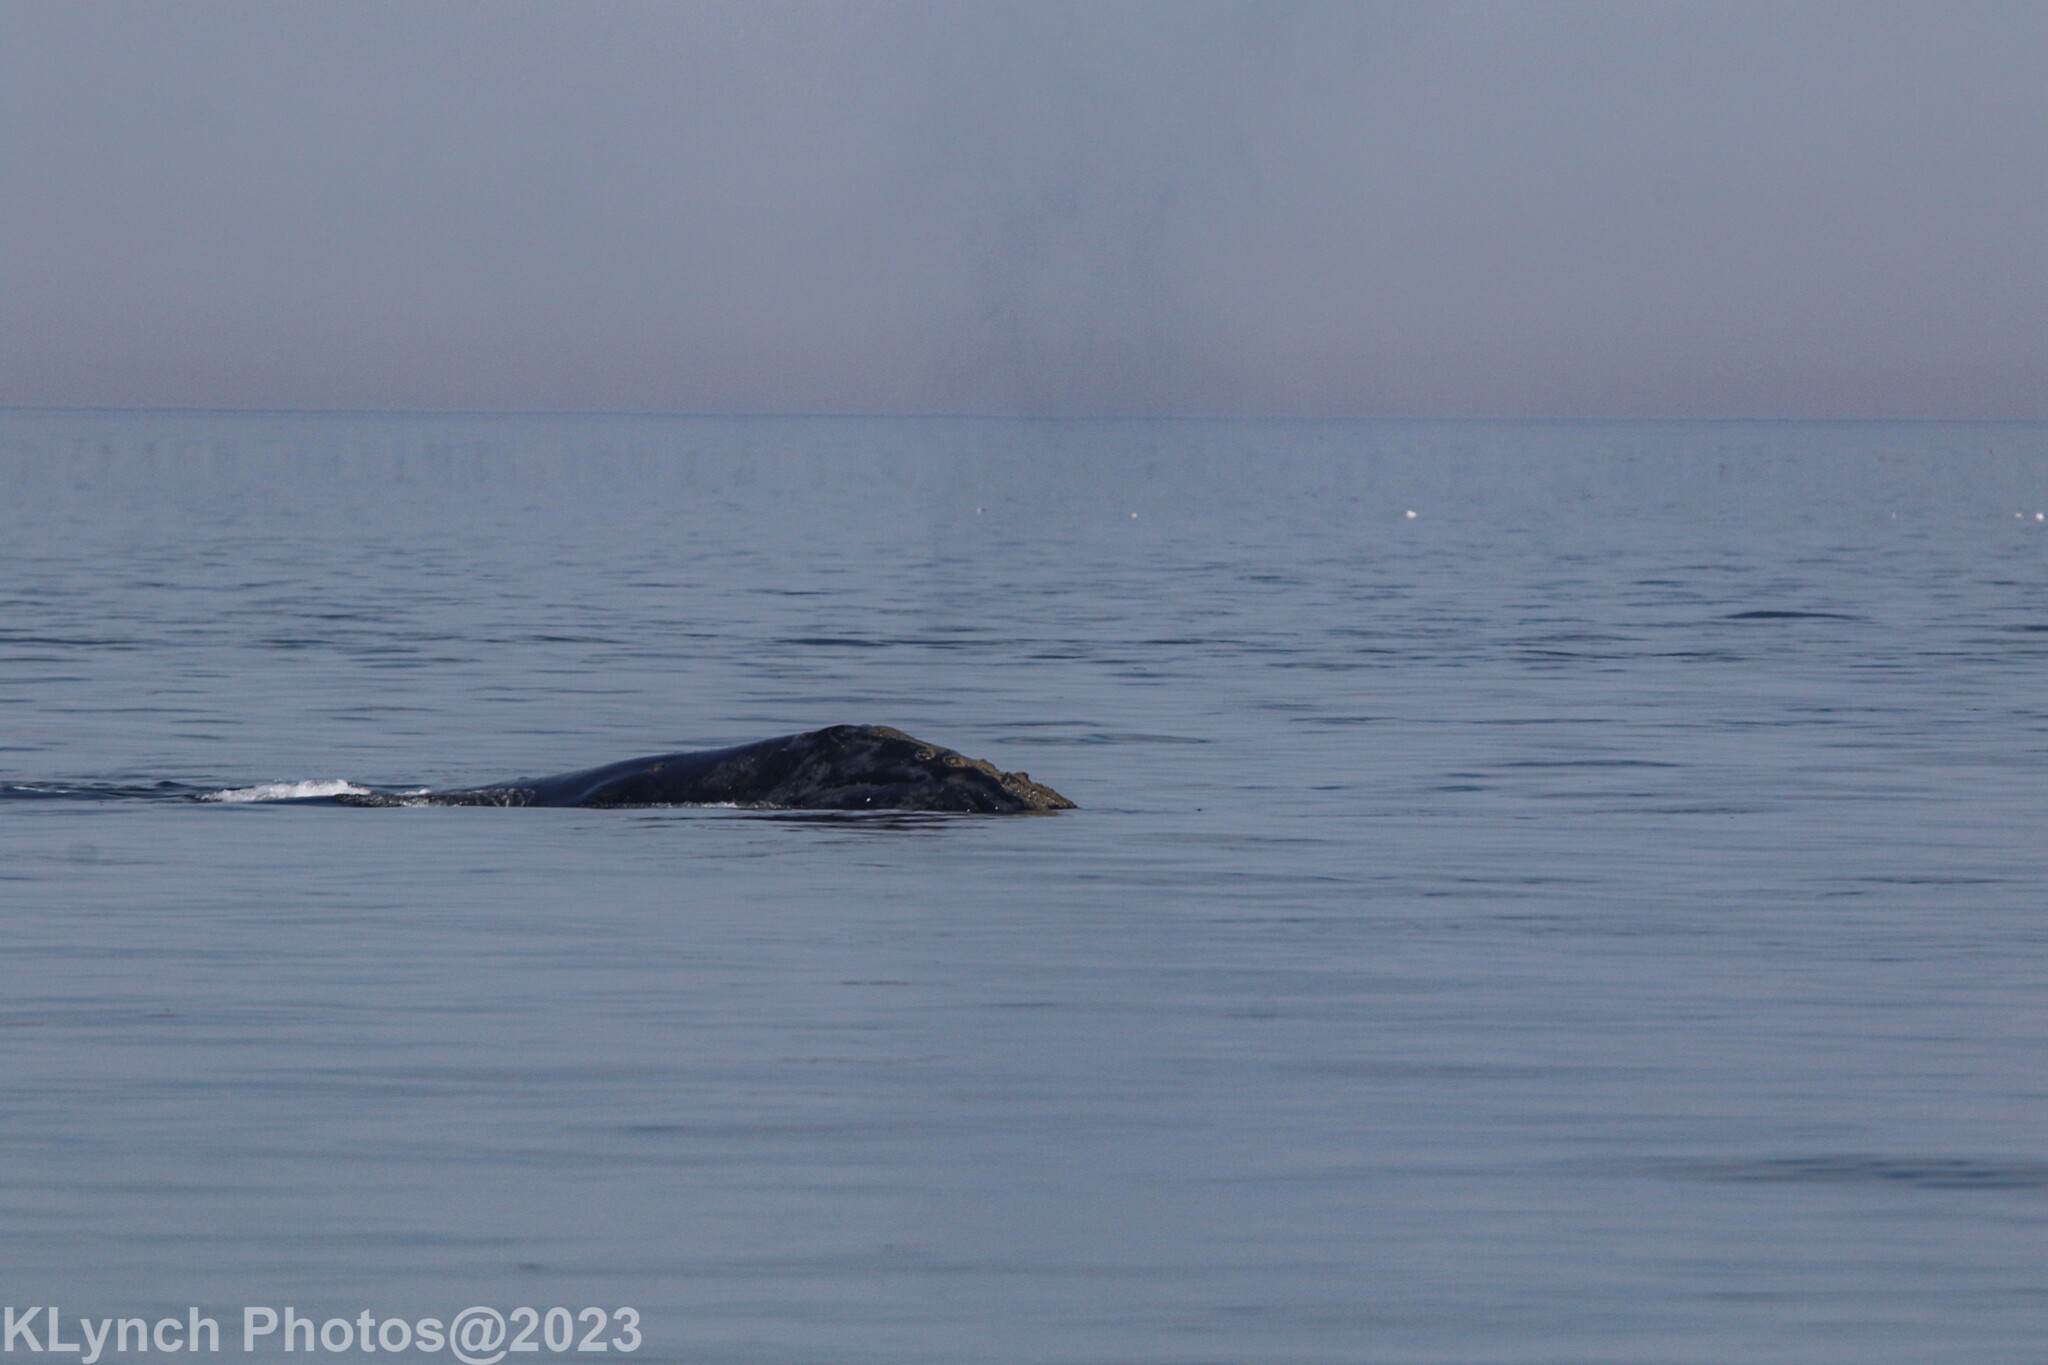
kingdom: Animalia
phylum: Chordata
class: Mammalia
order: Cetacea
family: Balaenidae
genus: Eubalaena
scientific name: Eubalaena glacialis
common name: North atlantic right whale
